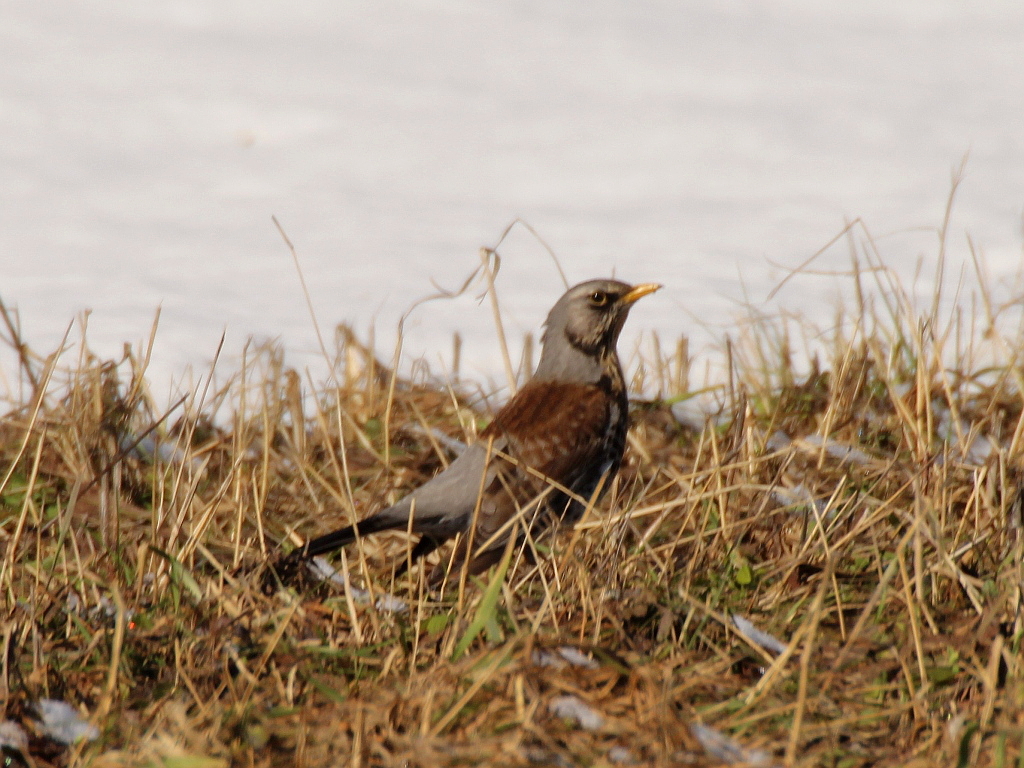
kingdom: Animalia
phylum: Chordata
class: Aves
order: Passeriformes
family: Turdidae
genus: Turdus
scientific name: Turdus pilaris
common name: Fieldfare
